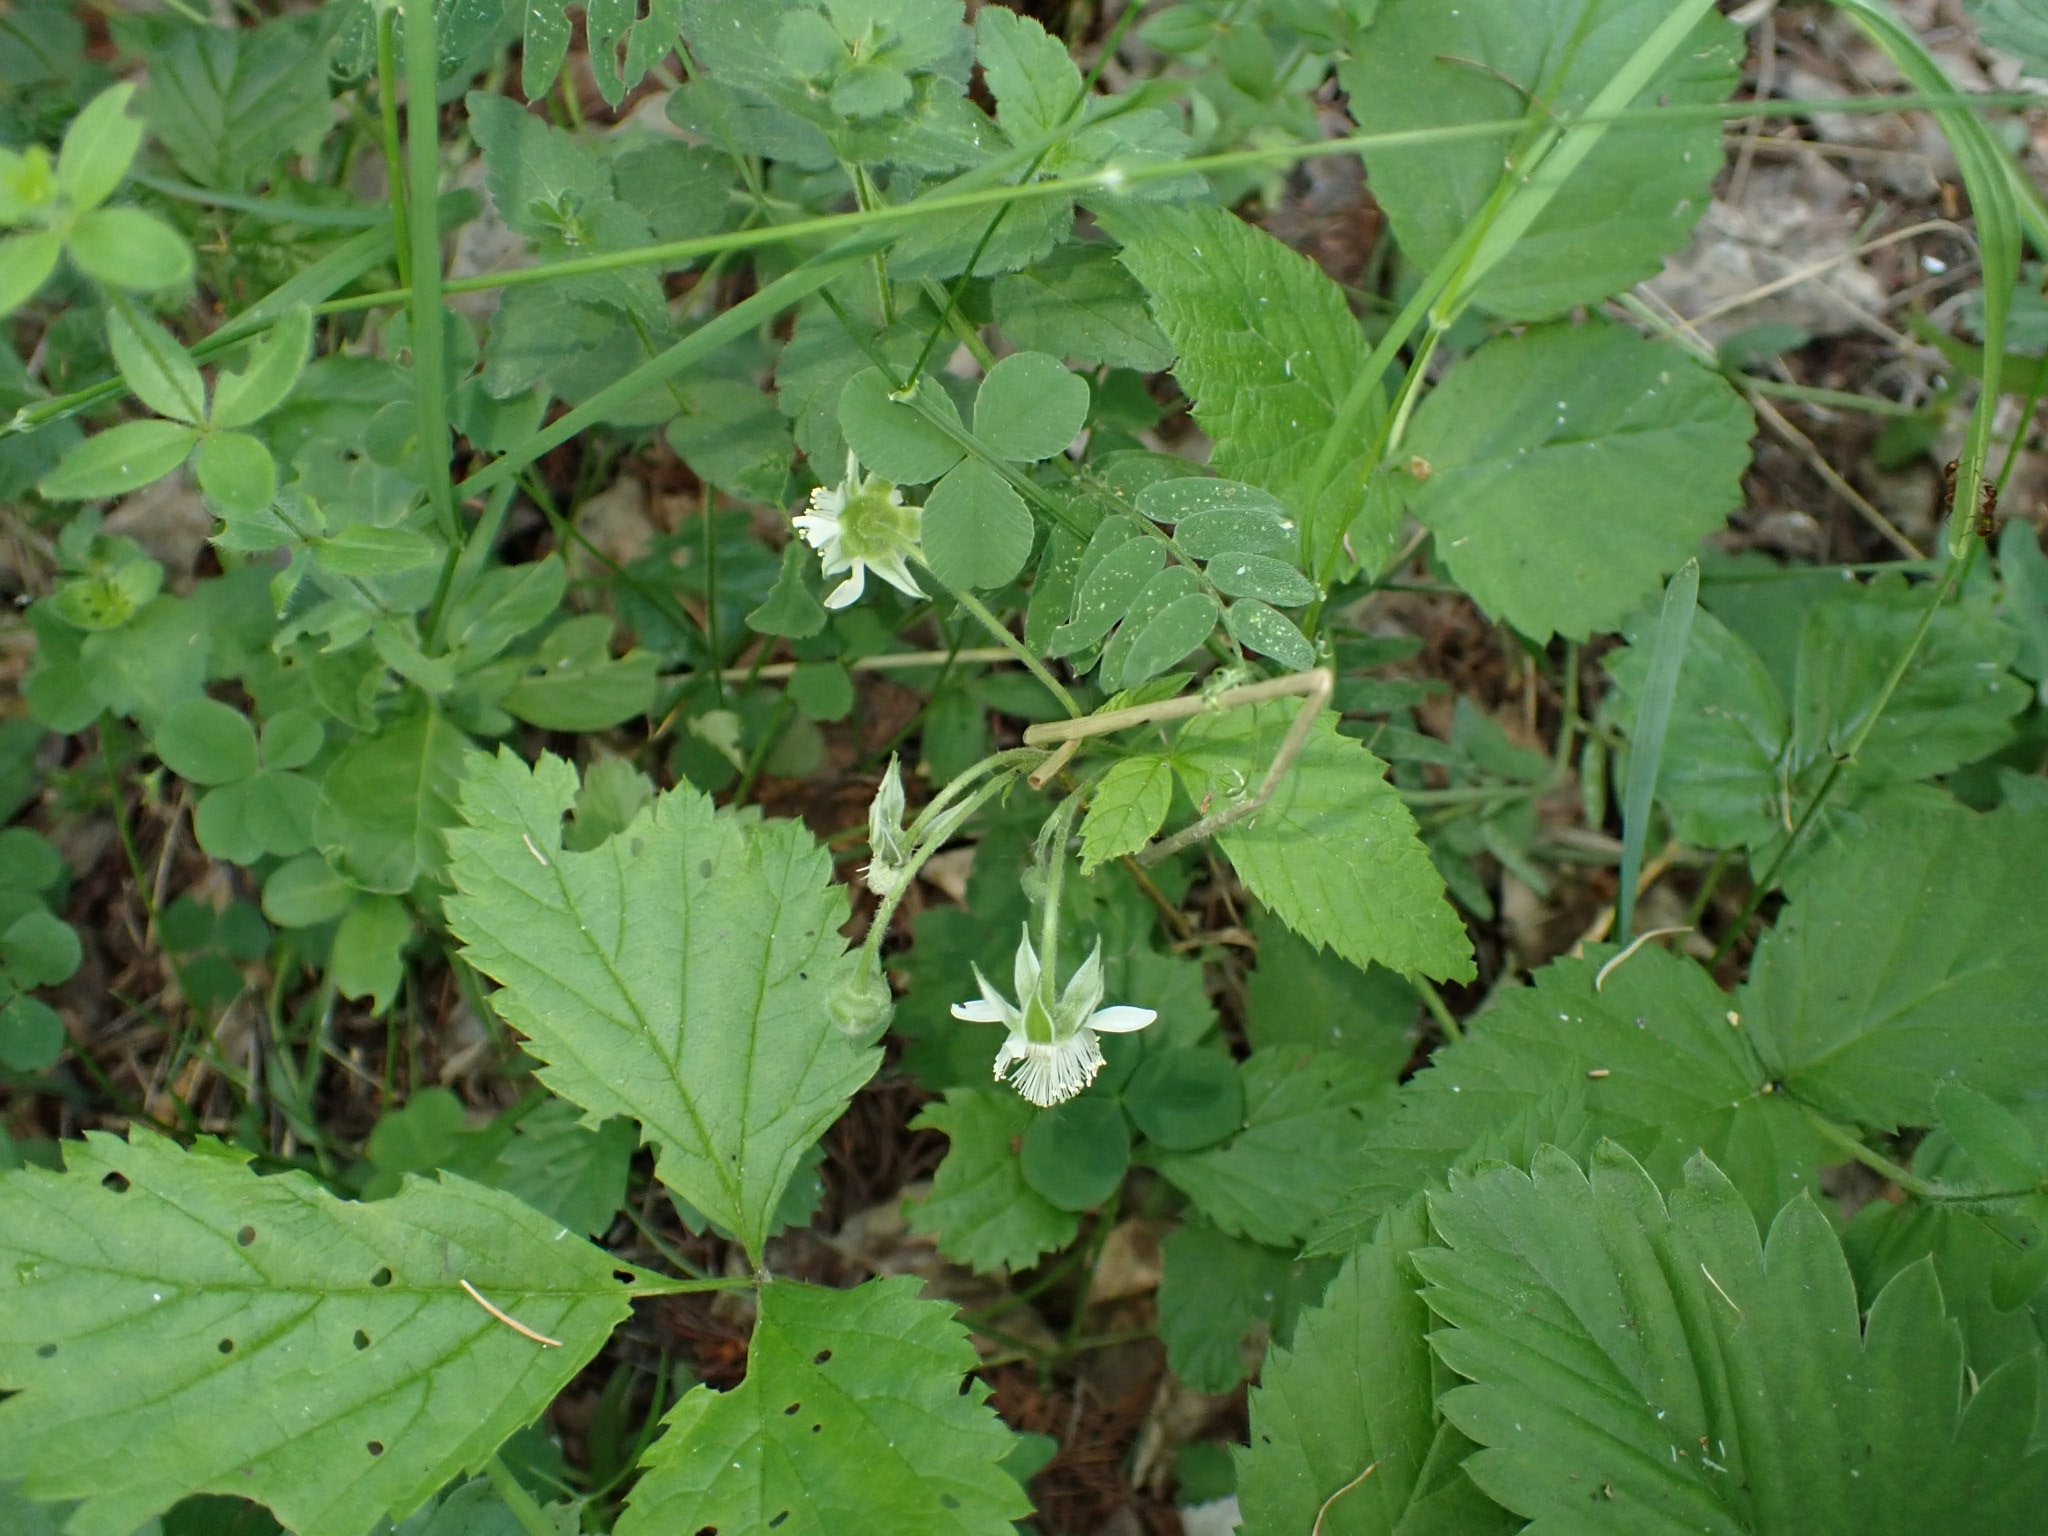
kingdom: Plantae
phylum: Tracheophyta
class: Magnoliopsida
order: Rosales
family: Rosaceae
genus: Rubus
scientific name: Rubus caesius
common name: Dewberry
